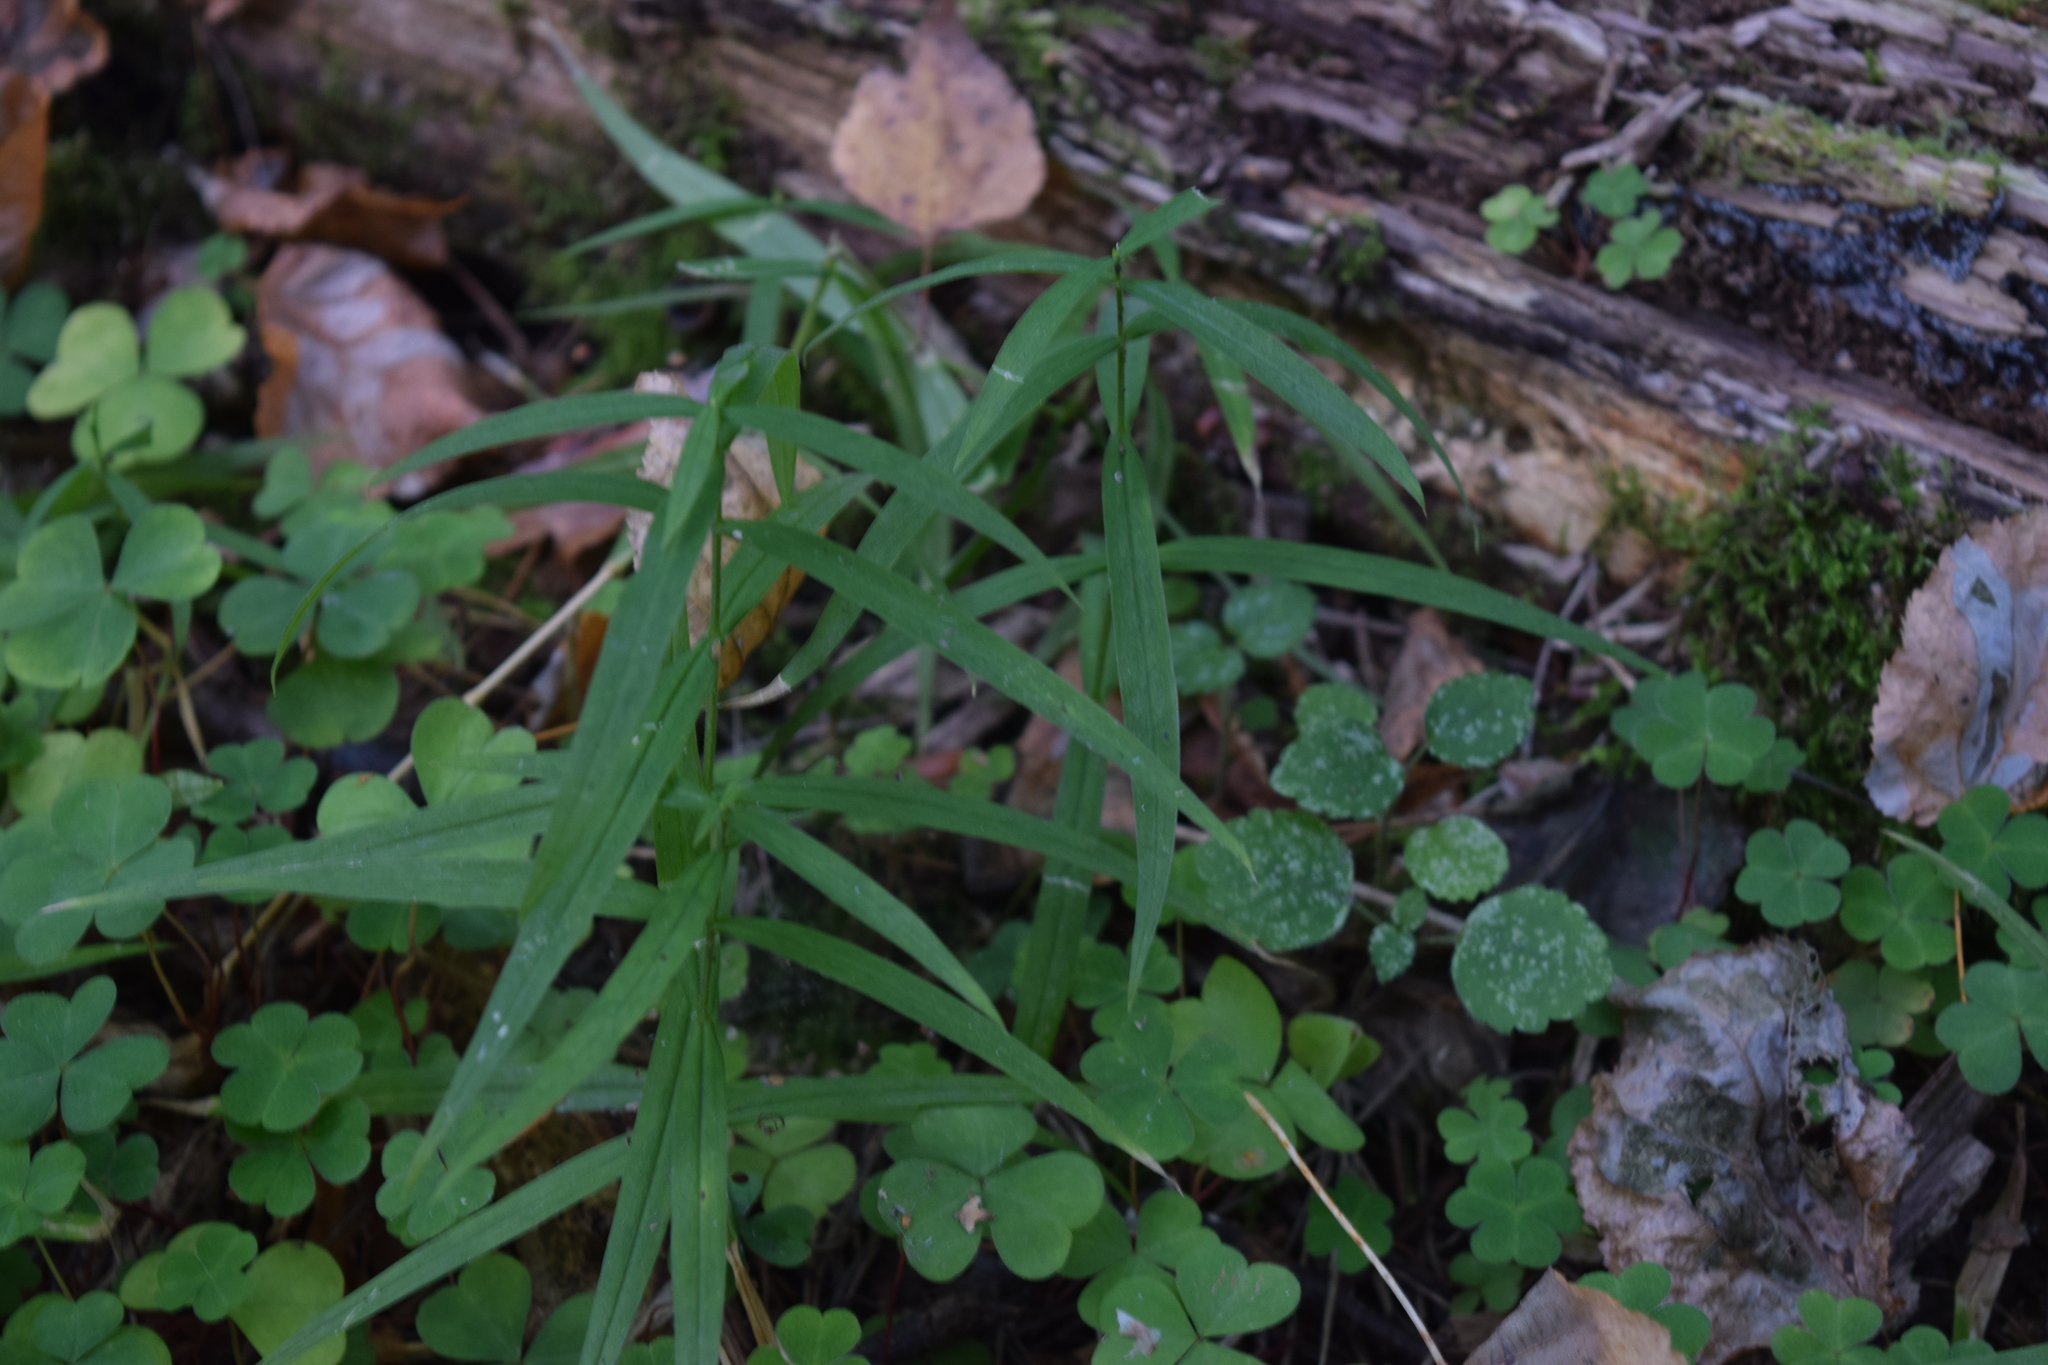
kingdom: Plantae
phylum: Tracheophyta
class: Magnoliopsida
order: Caryophyllales
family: Caryophyllaceae
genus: Rabelera
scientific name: Rabelera holostea
